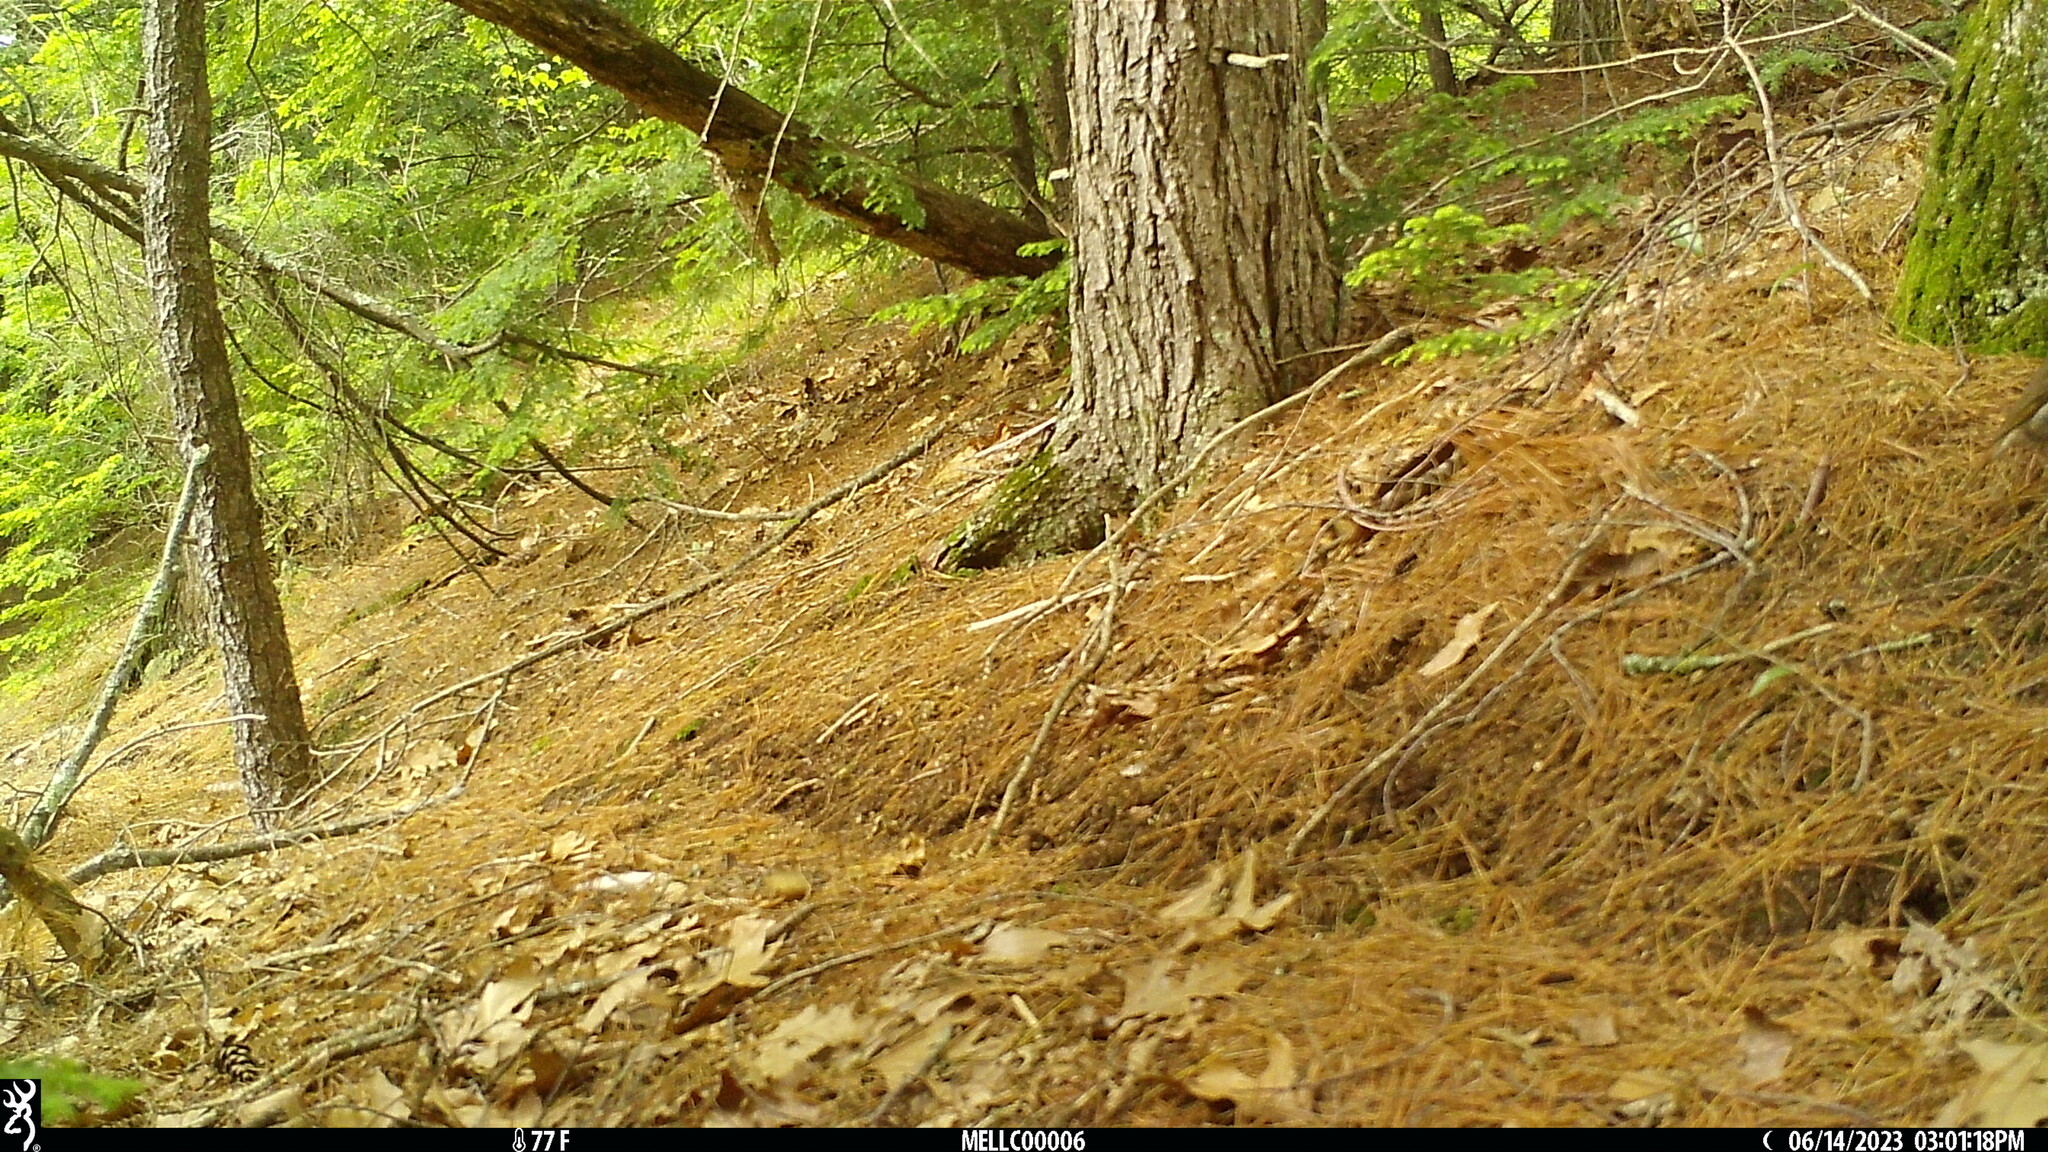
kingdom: Animalia
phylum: Chordata
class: Aves
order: Passeriformes
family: Turdidae
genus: Catharus
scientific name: Catharus guttatus
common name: Hermit thrush
